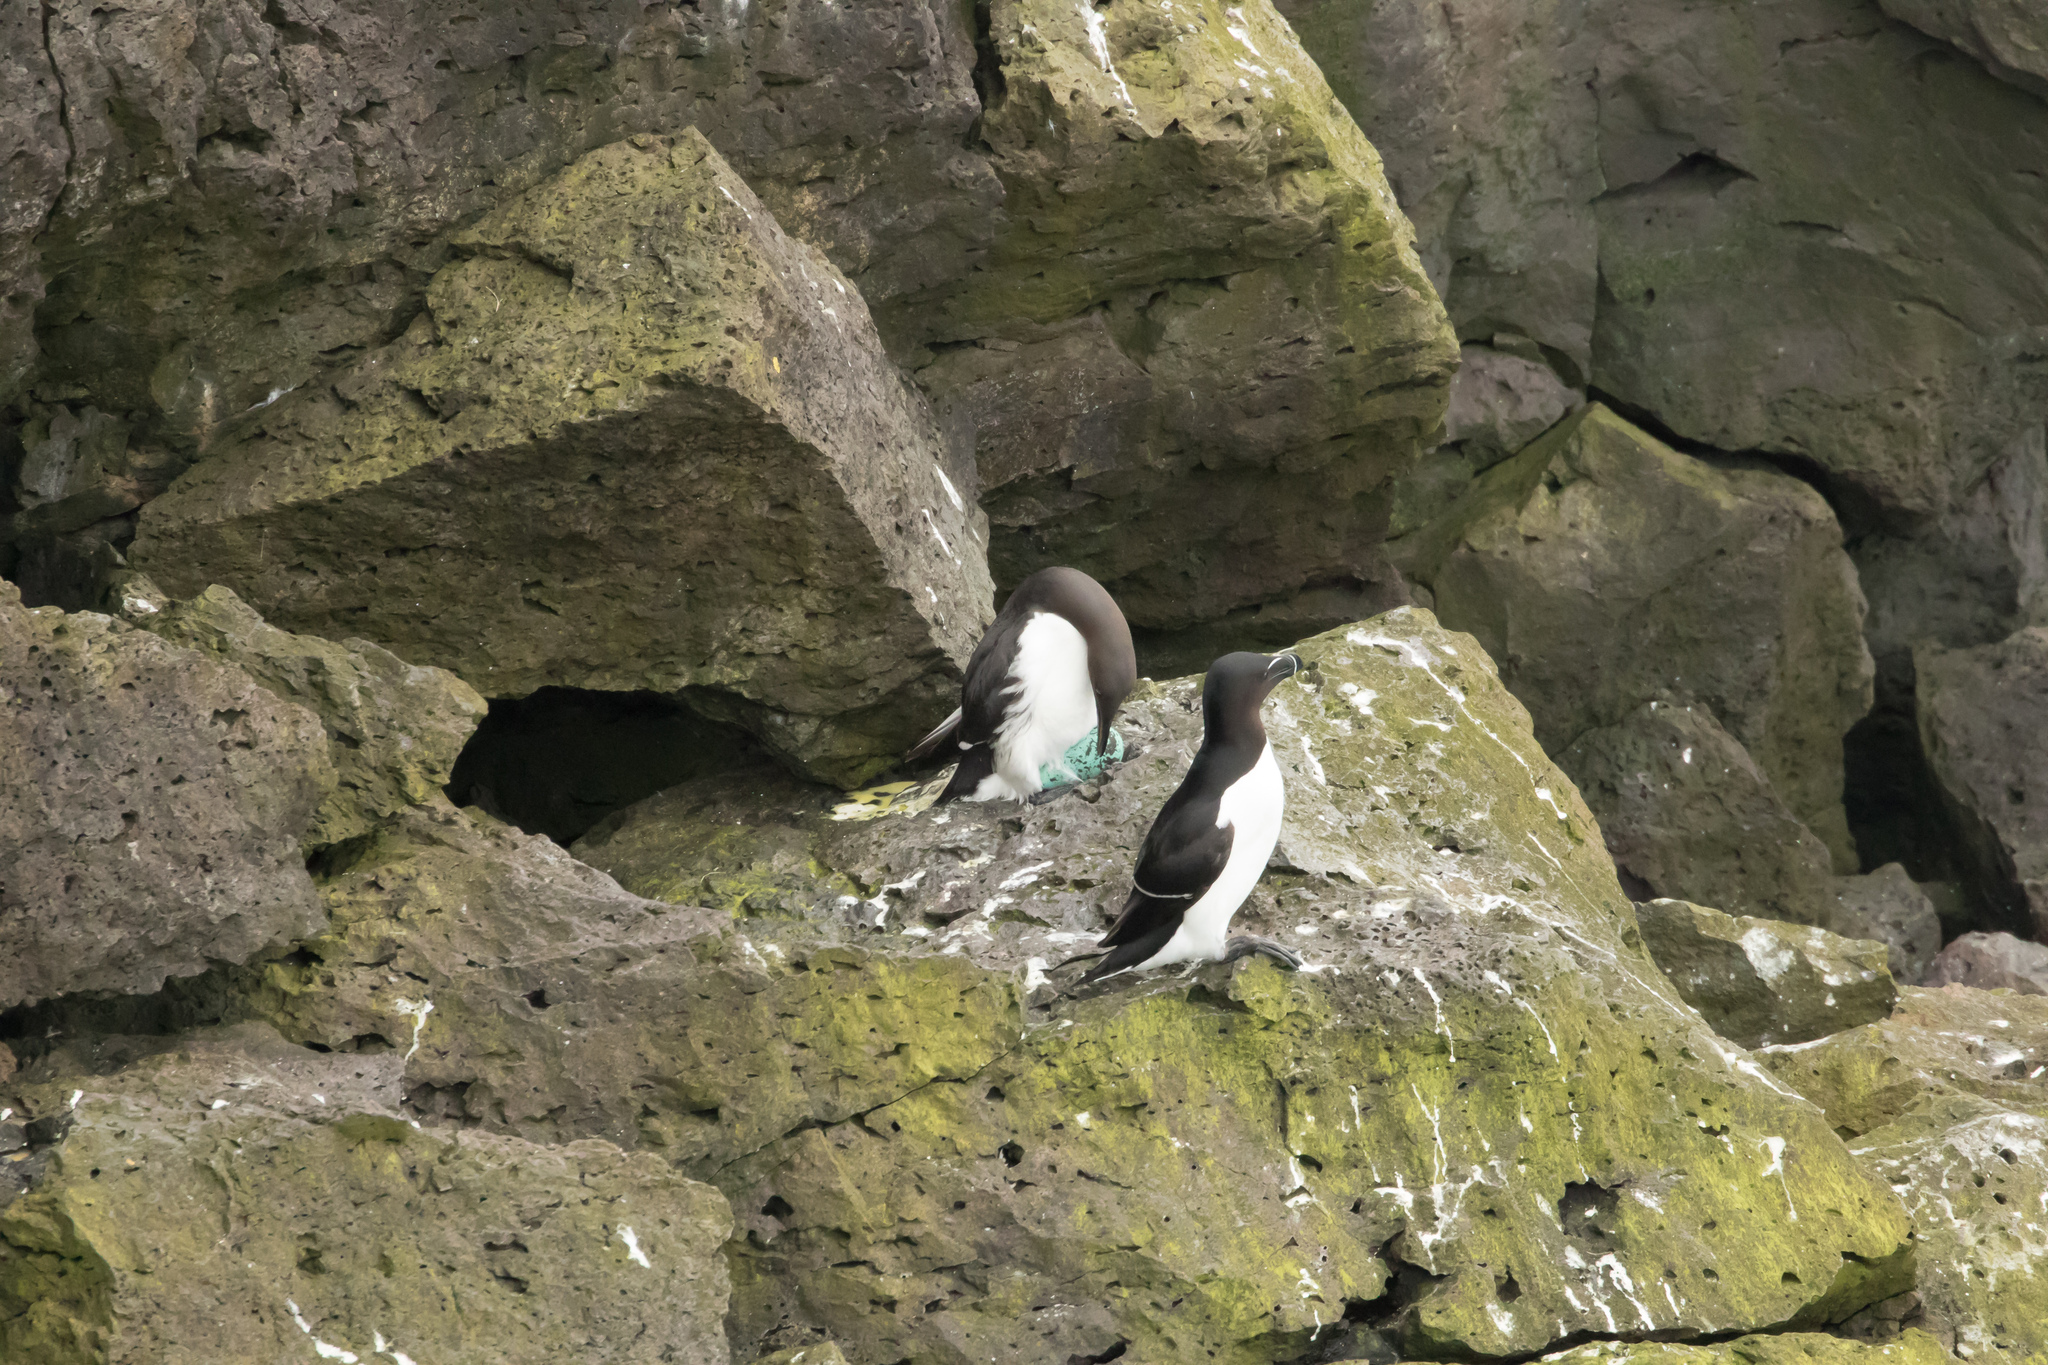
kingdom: Animalia
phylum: Chordata
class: Aves
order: Charadriiformes
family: Alcidae
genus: Uria
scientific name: Uria aalge
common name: Common murre
